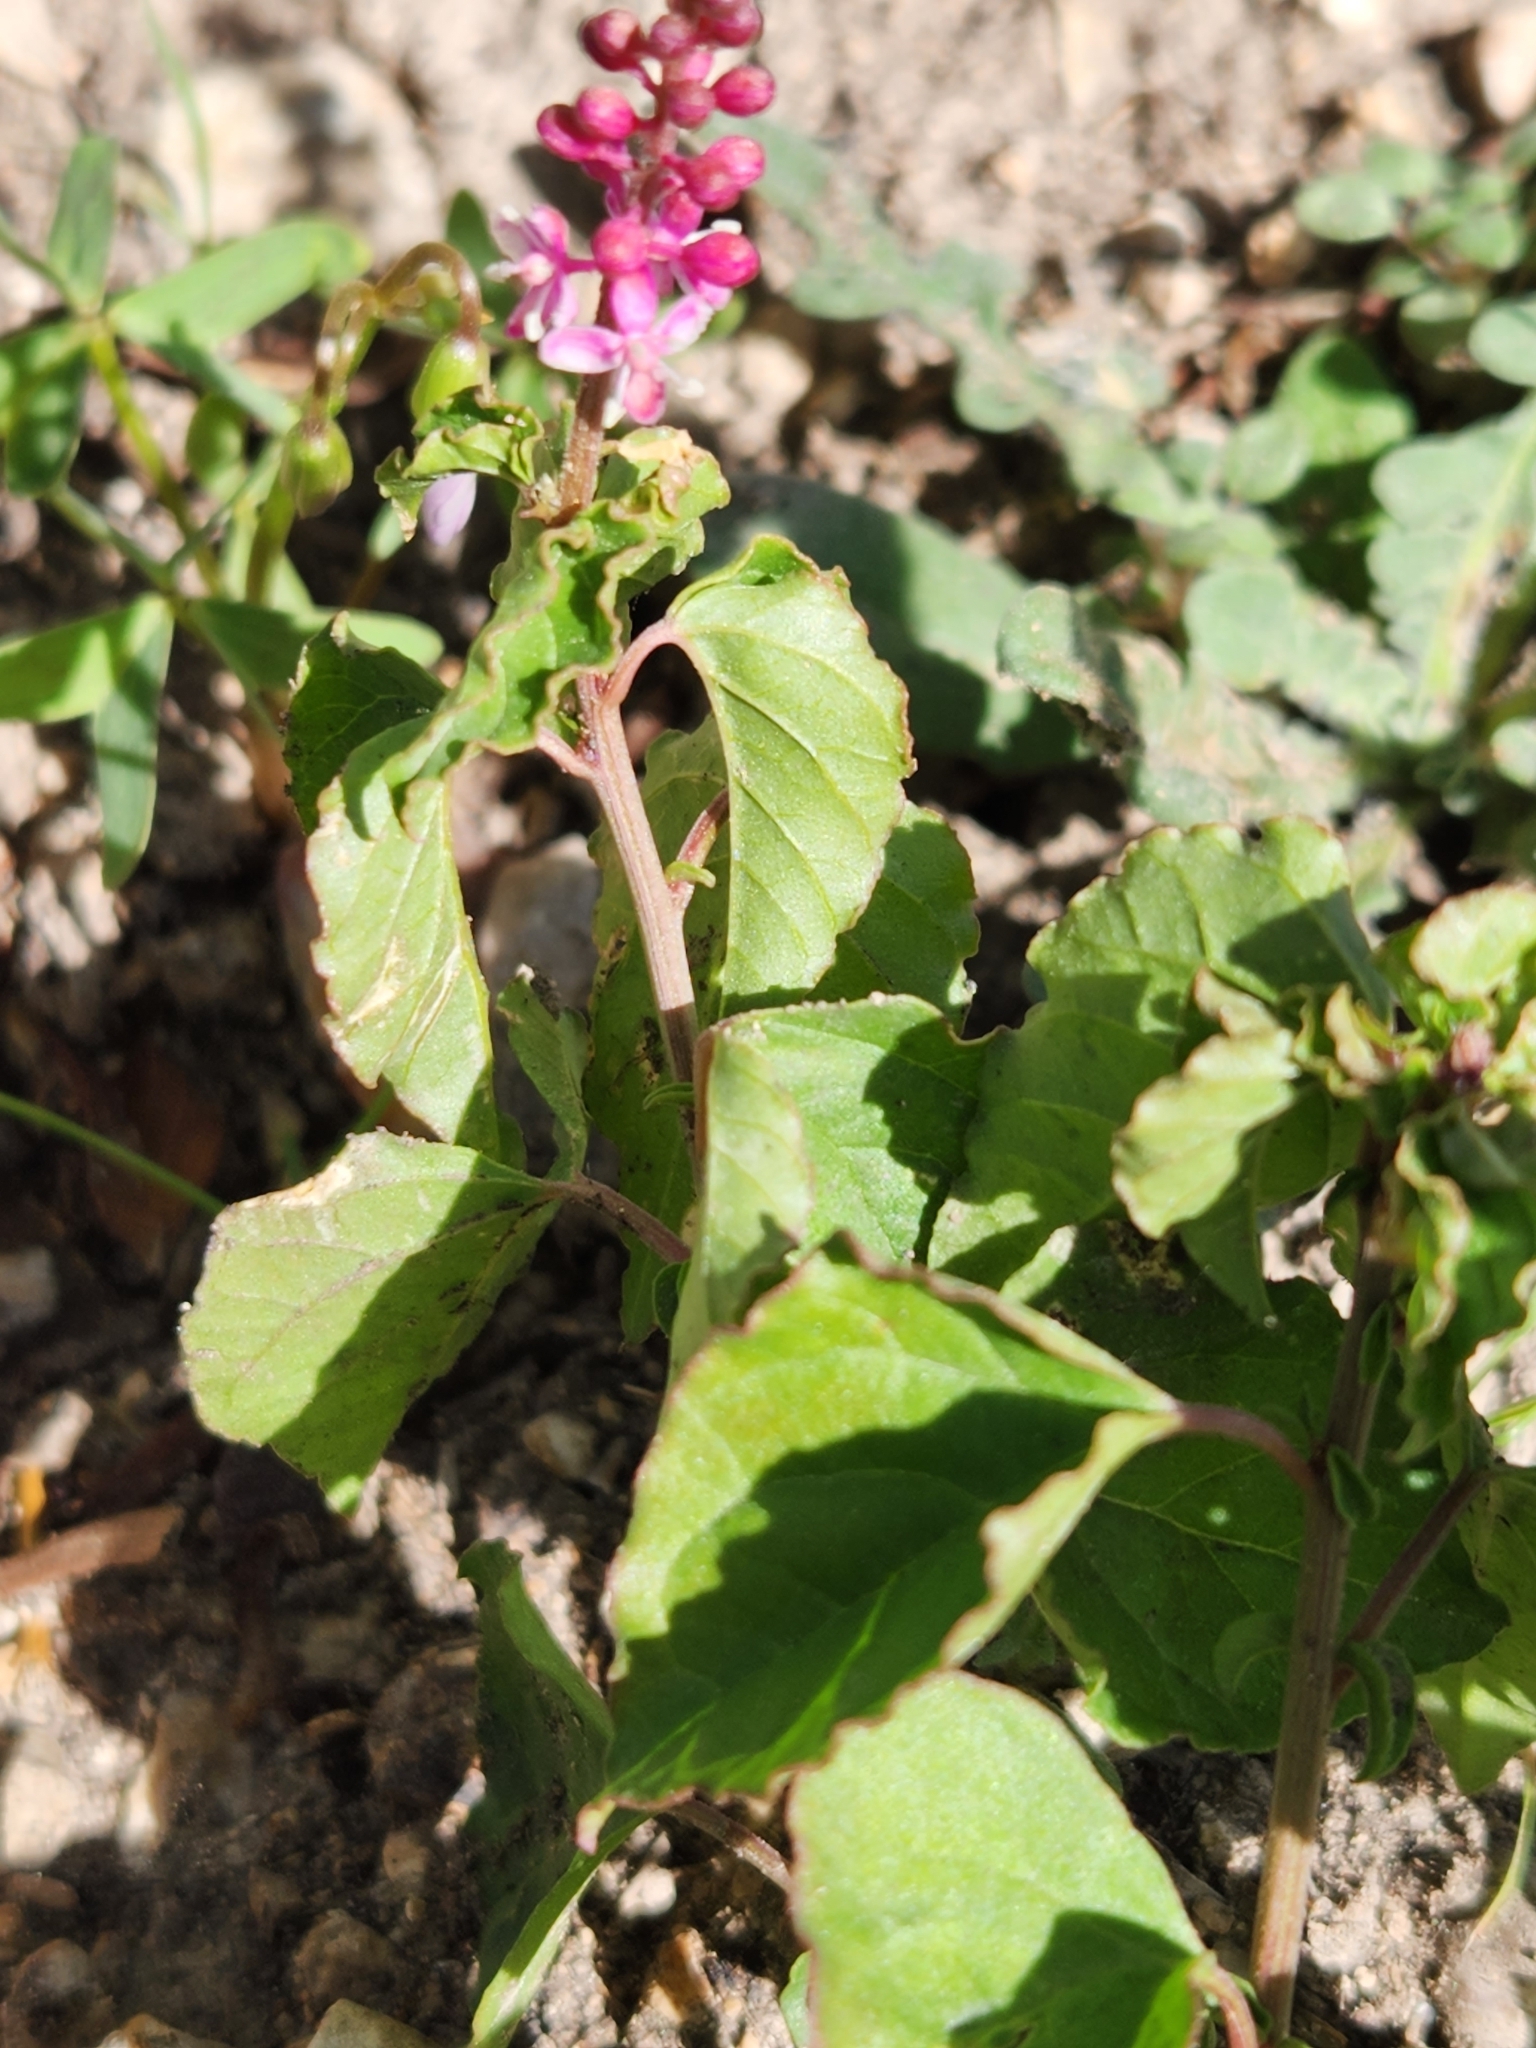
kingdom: Plantae
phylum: Tracheophyta
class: Magnoliopsida
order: Caryophyllales
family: Phytolaccaceae
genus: Rivina
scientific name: Rivina humilis
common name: Rougeplant
